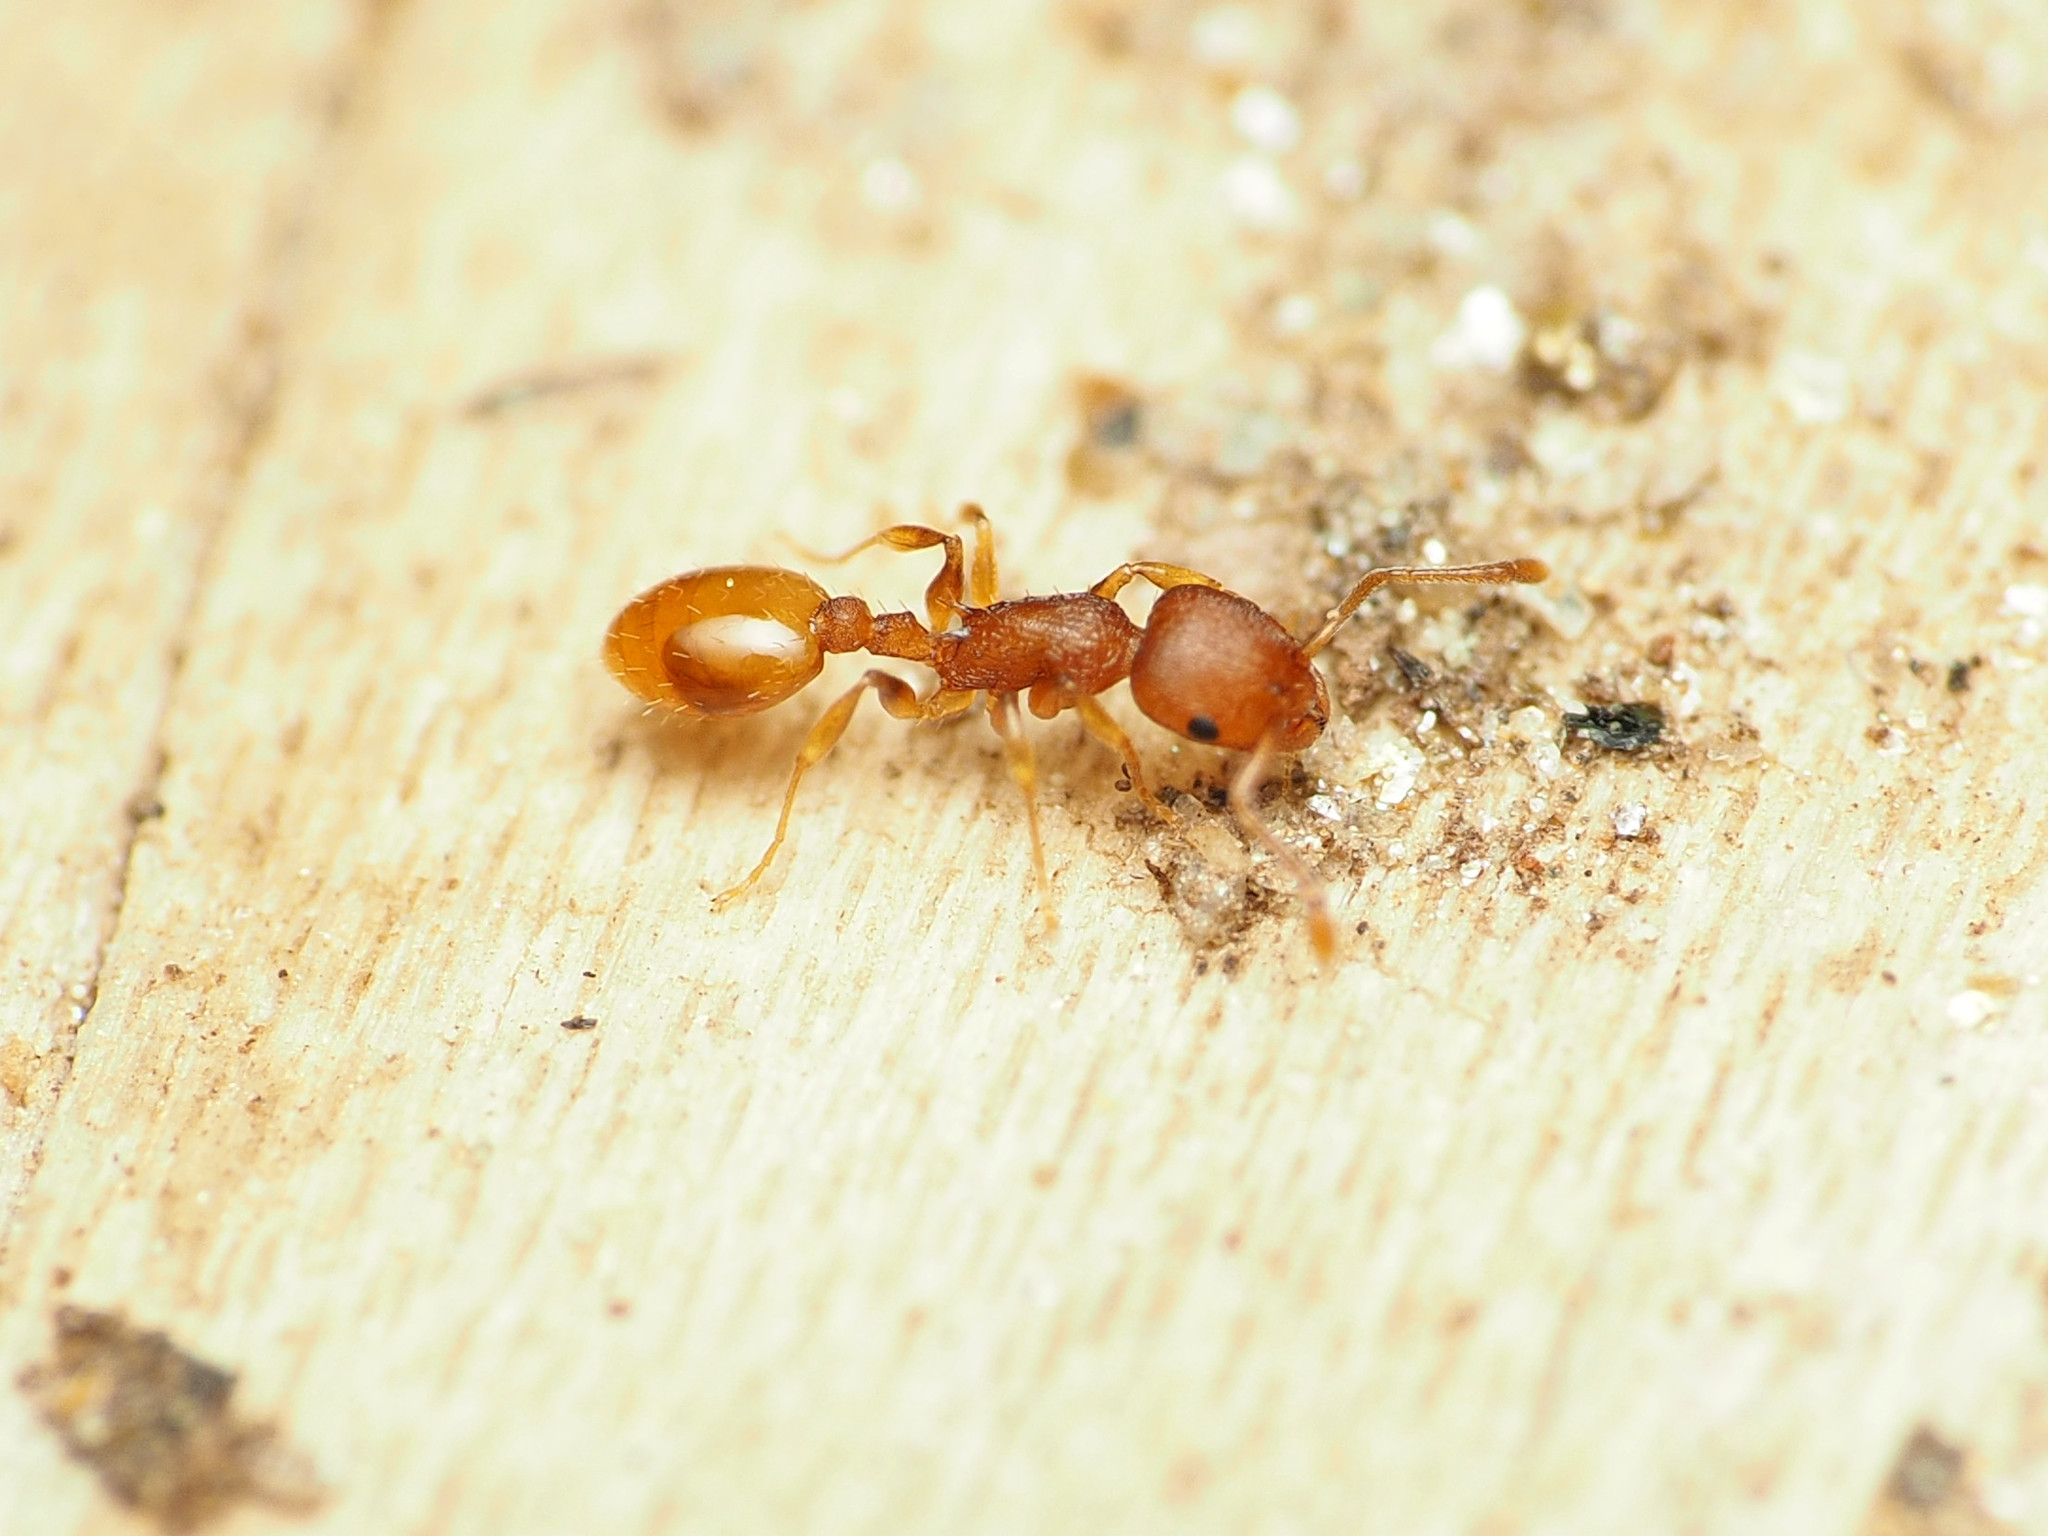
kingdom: Animalia
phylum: Arthropoda
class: Insecta
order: Hymenoptera
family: Formicidae
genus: Temnothorax
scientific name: Temnothorax ambiguus
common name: Doubtful acorn ant
